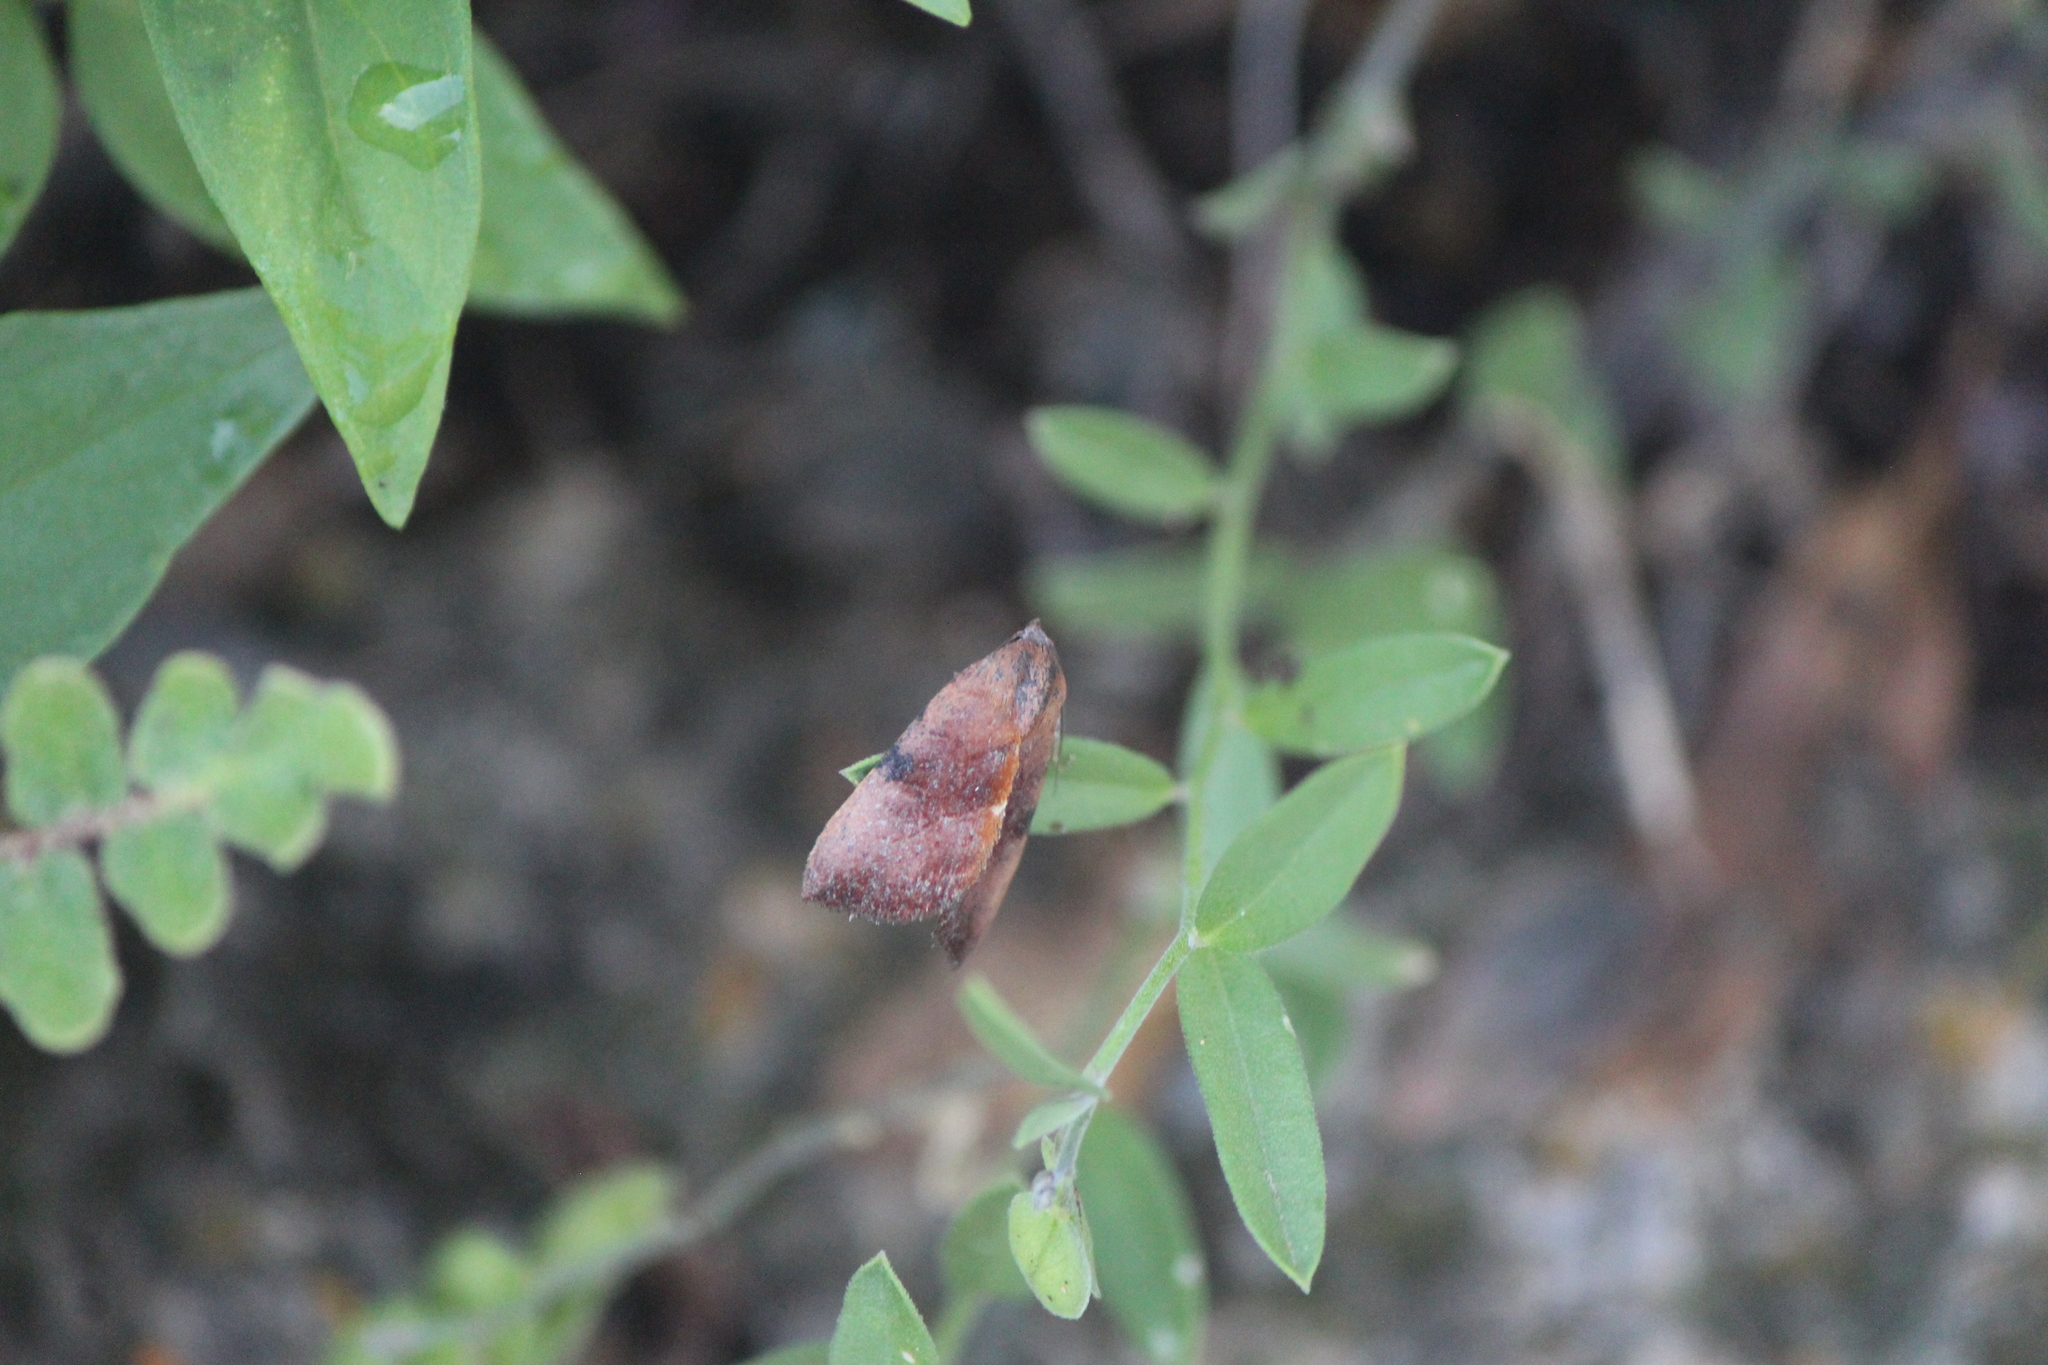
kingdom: Animalia
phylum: Arthropoda
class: Insecta
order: Lepidoptera
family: Noctuidae
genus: Galgula
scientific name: Galgula partita
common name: Wedgeling
